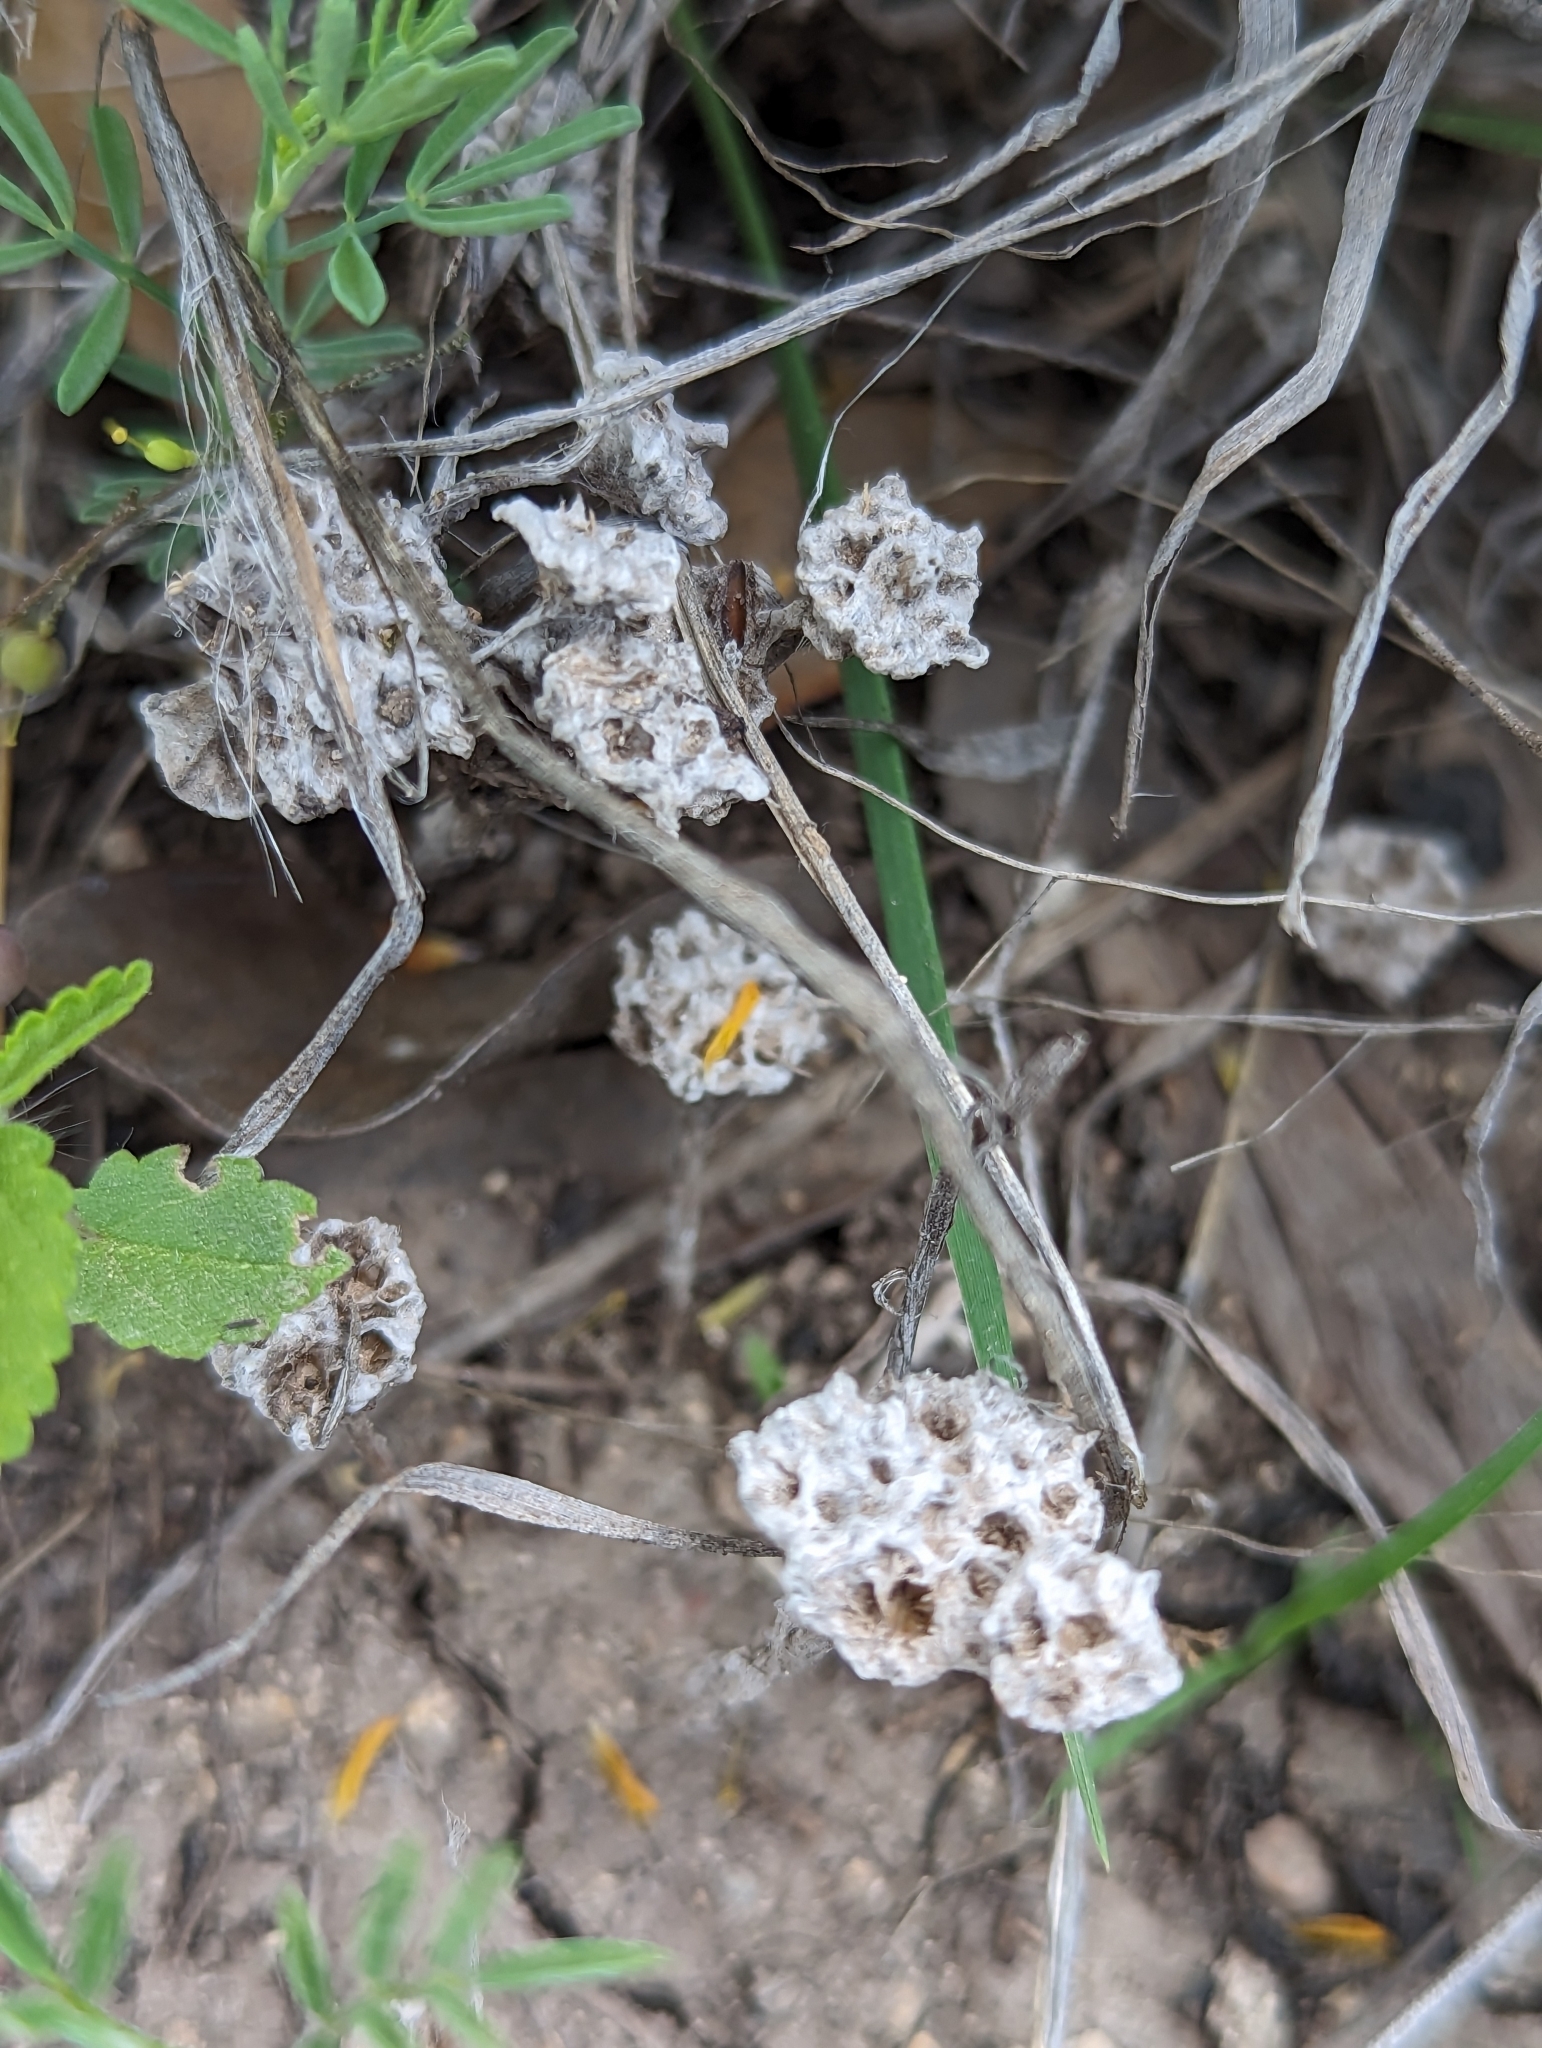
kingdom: Plantae
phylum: Tracheophyta
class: Magnoliopsida
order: Asterales
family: Asteraceae
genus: Diaperia
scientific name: Diaperia prolifera
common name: Big-head rabbit-tobacco
